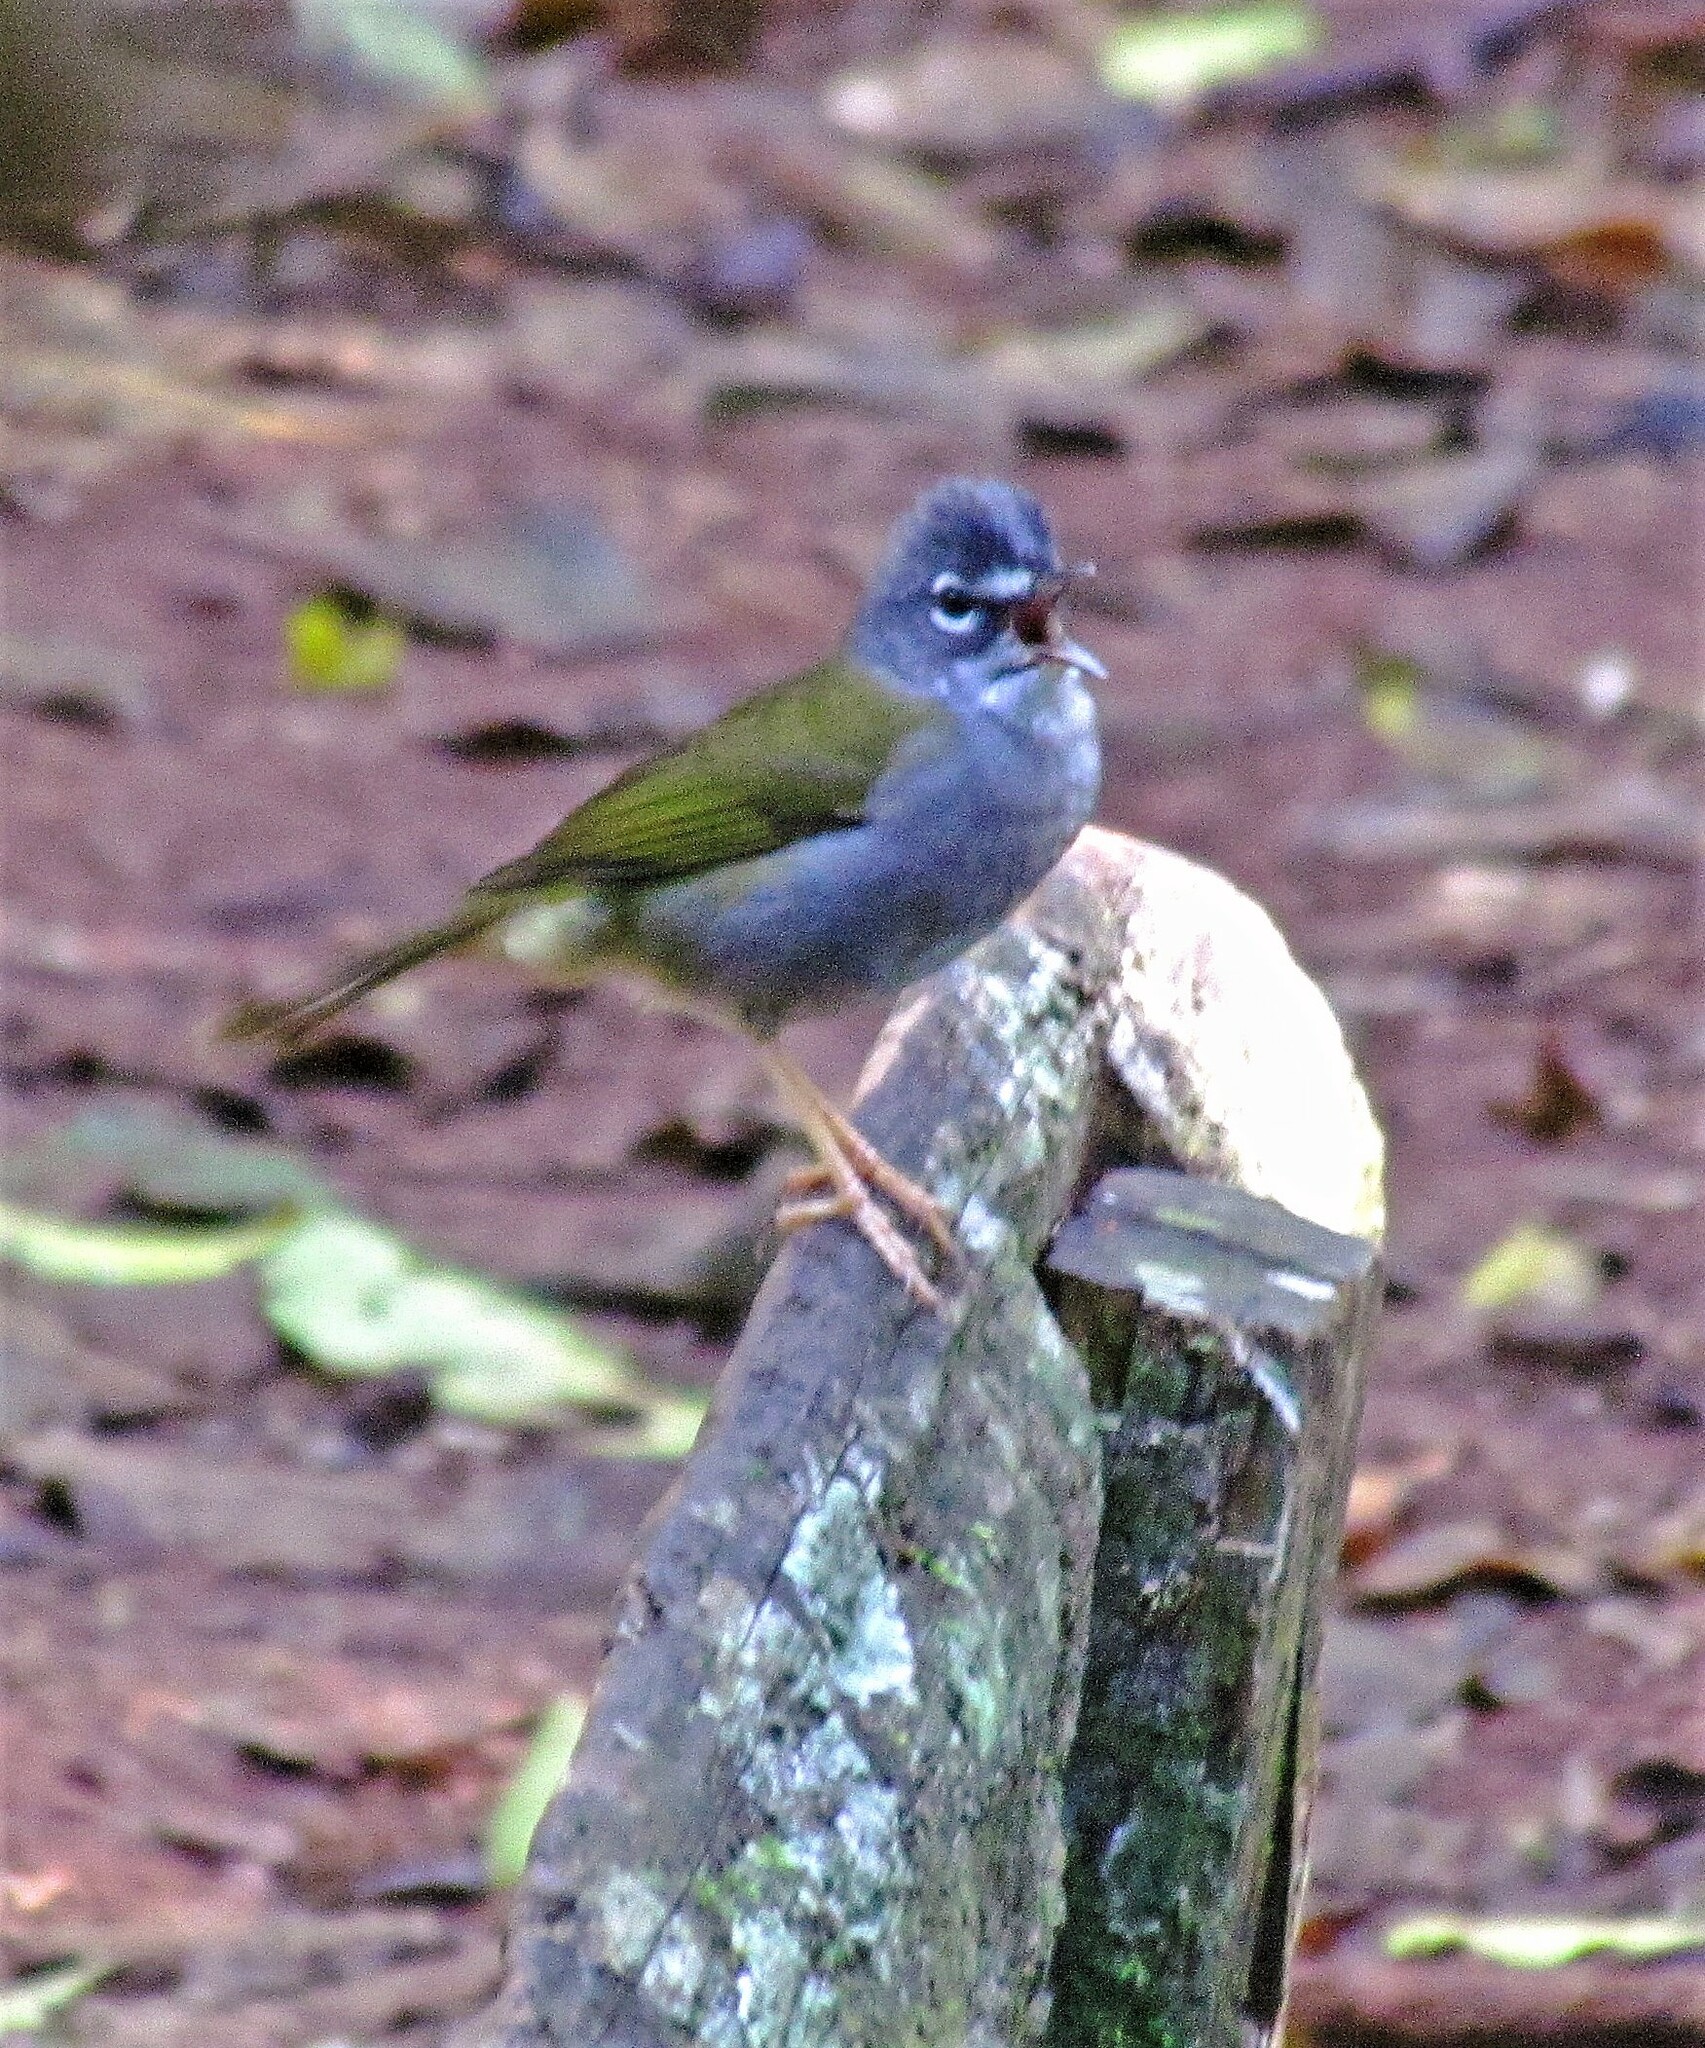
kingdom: Animalia
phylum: Chordata
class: Aves
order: Passeriformes
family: Parulidae
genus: Myiothlypis
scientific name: Myiothlypis leucoblephara
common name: White-rimmed warbler
